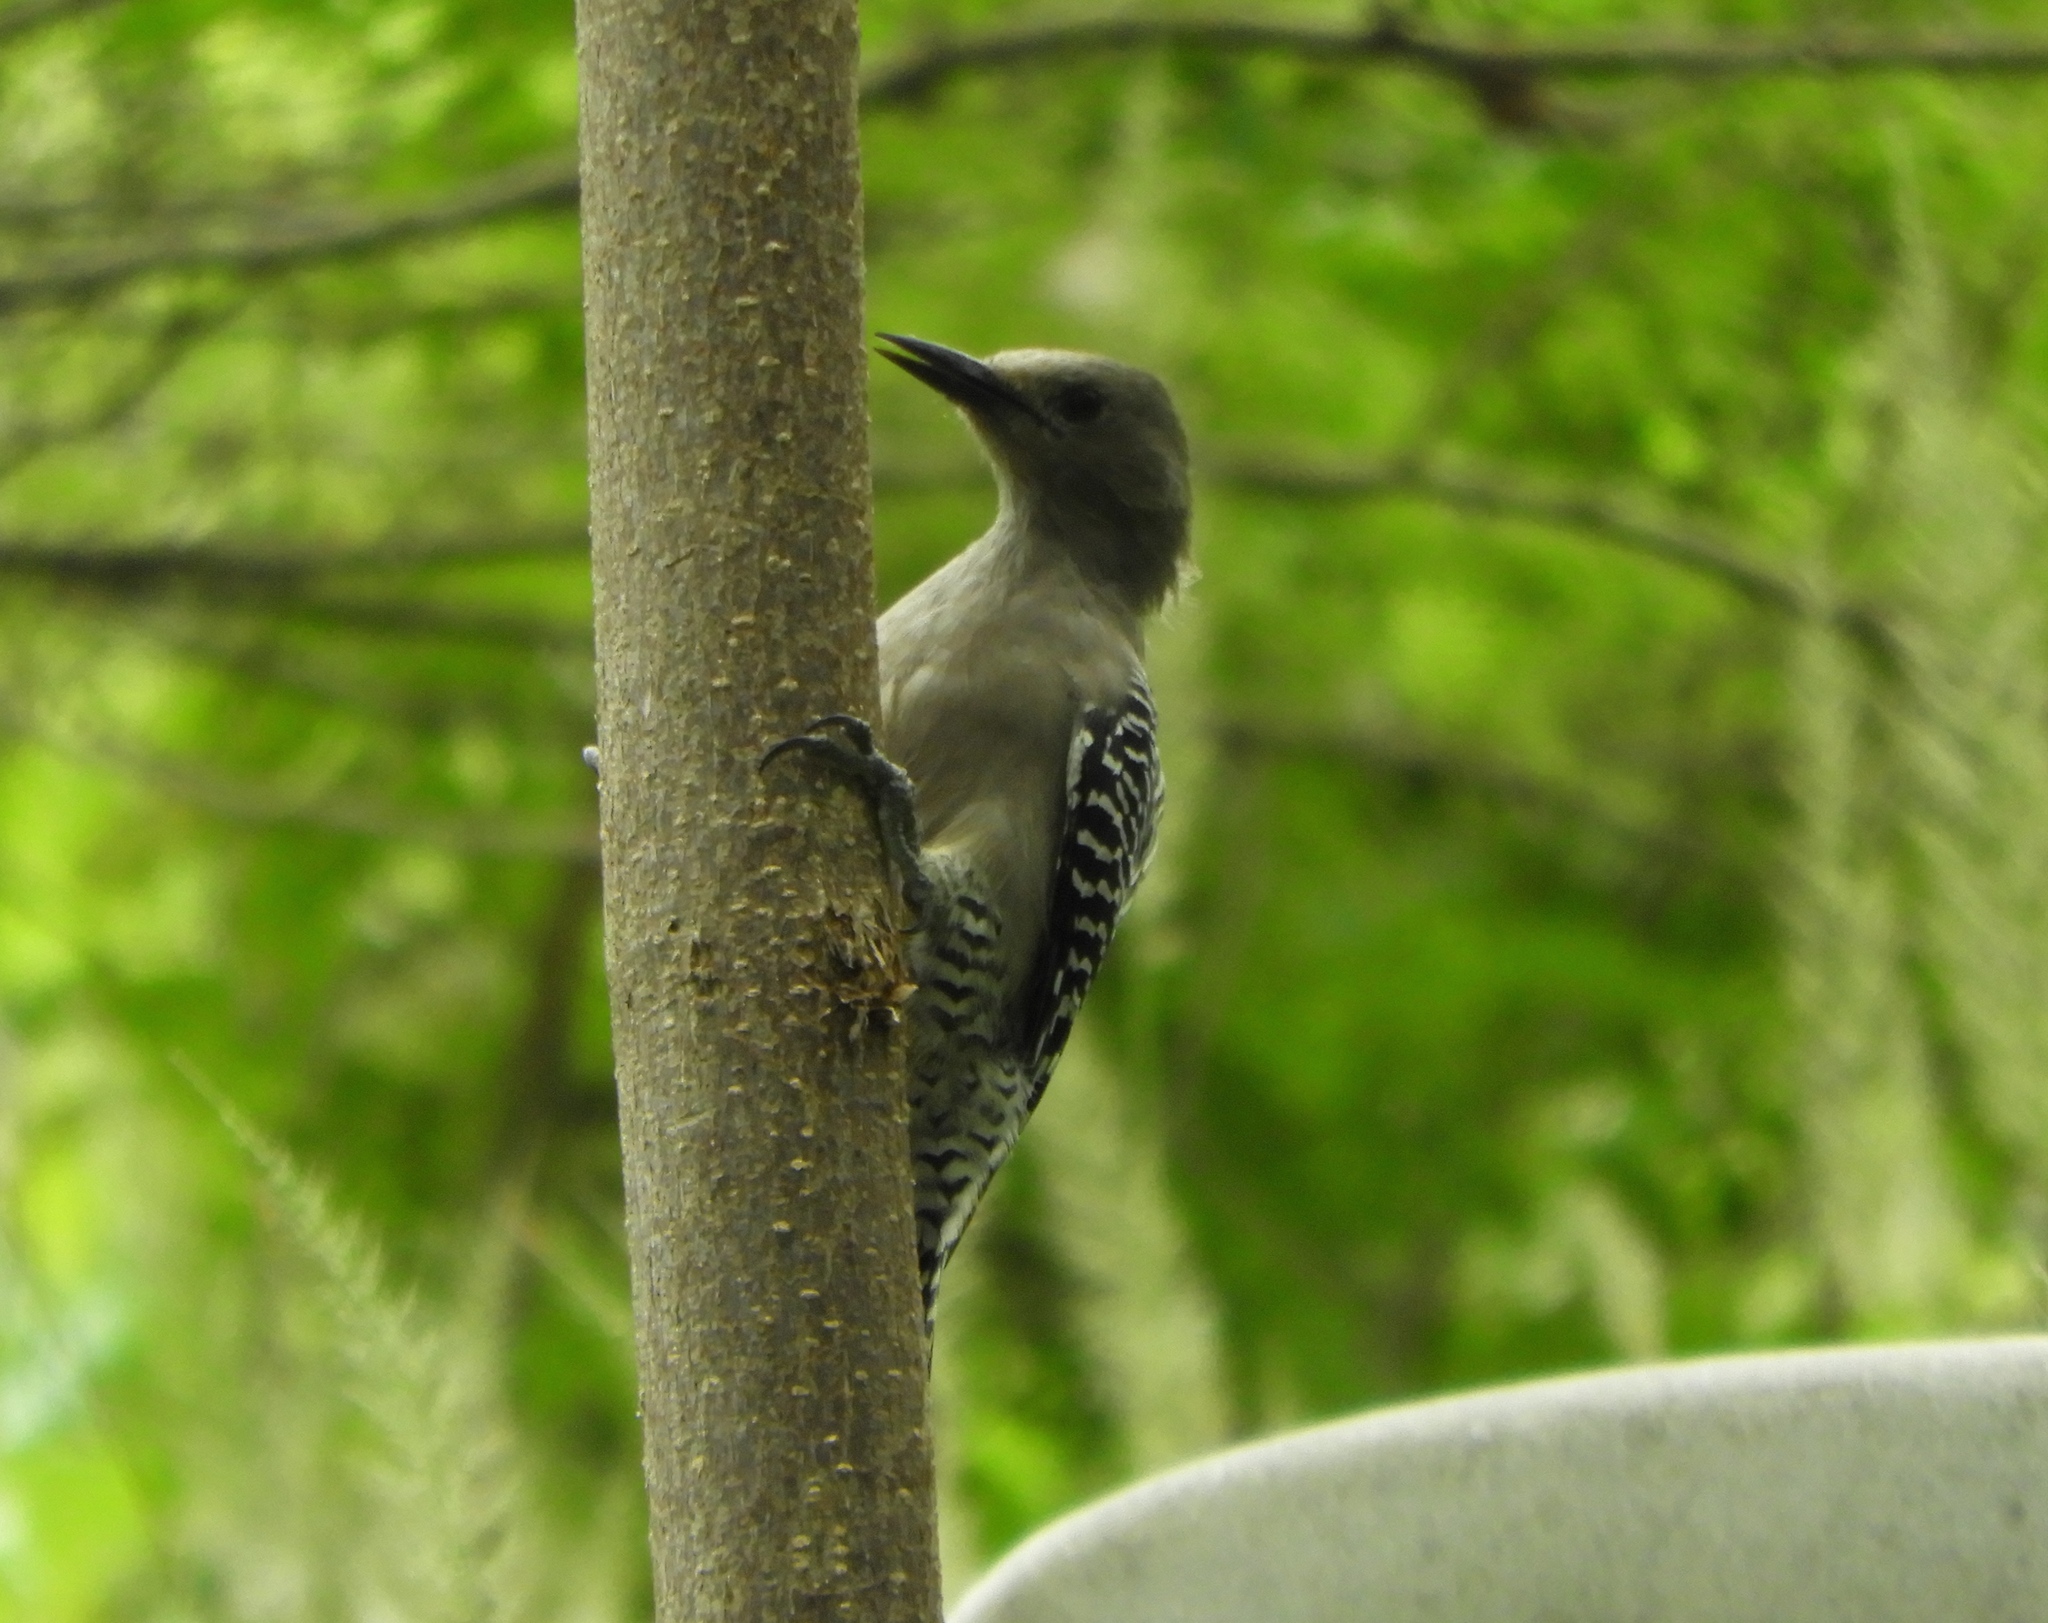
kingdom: Animalia
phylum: Chordata
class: Aves
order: Piciformes
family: Picidae
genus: Melanerpes
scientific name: Melanerpes uropygialis
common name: Gila woodpecker
